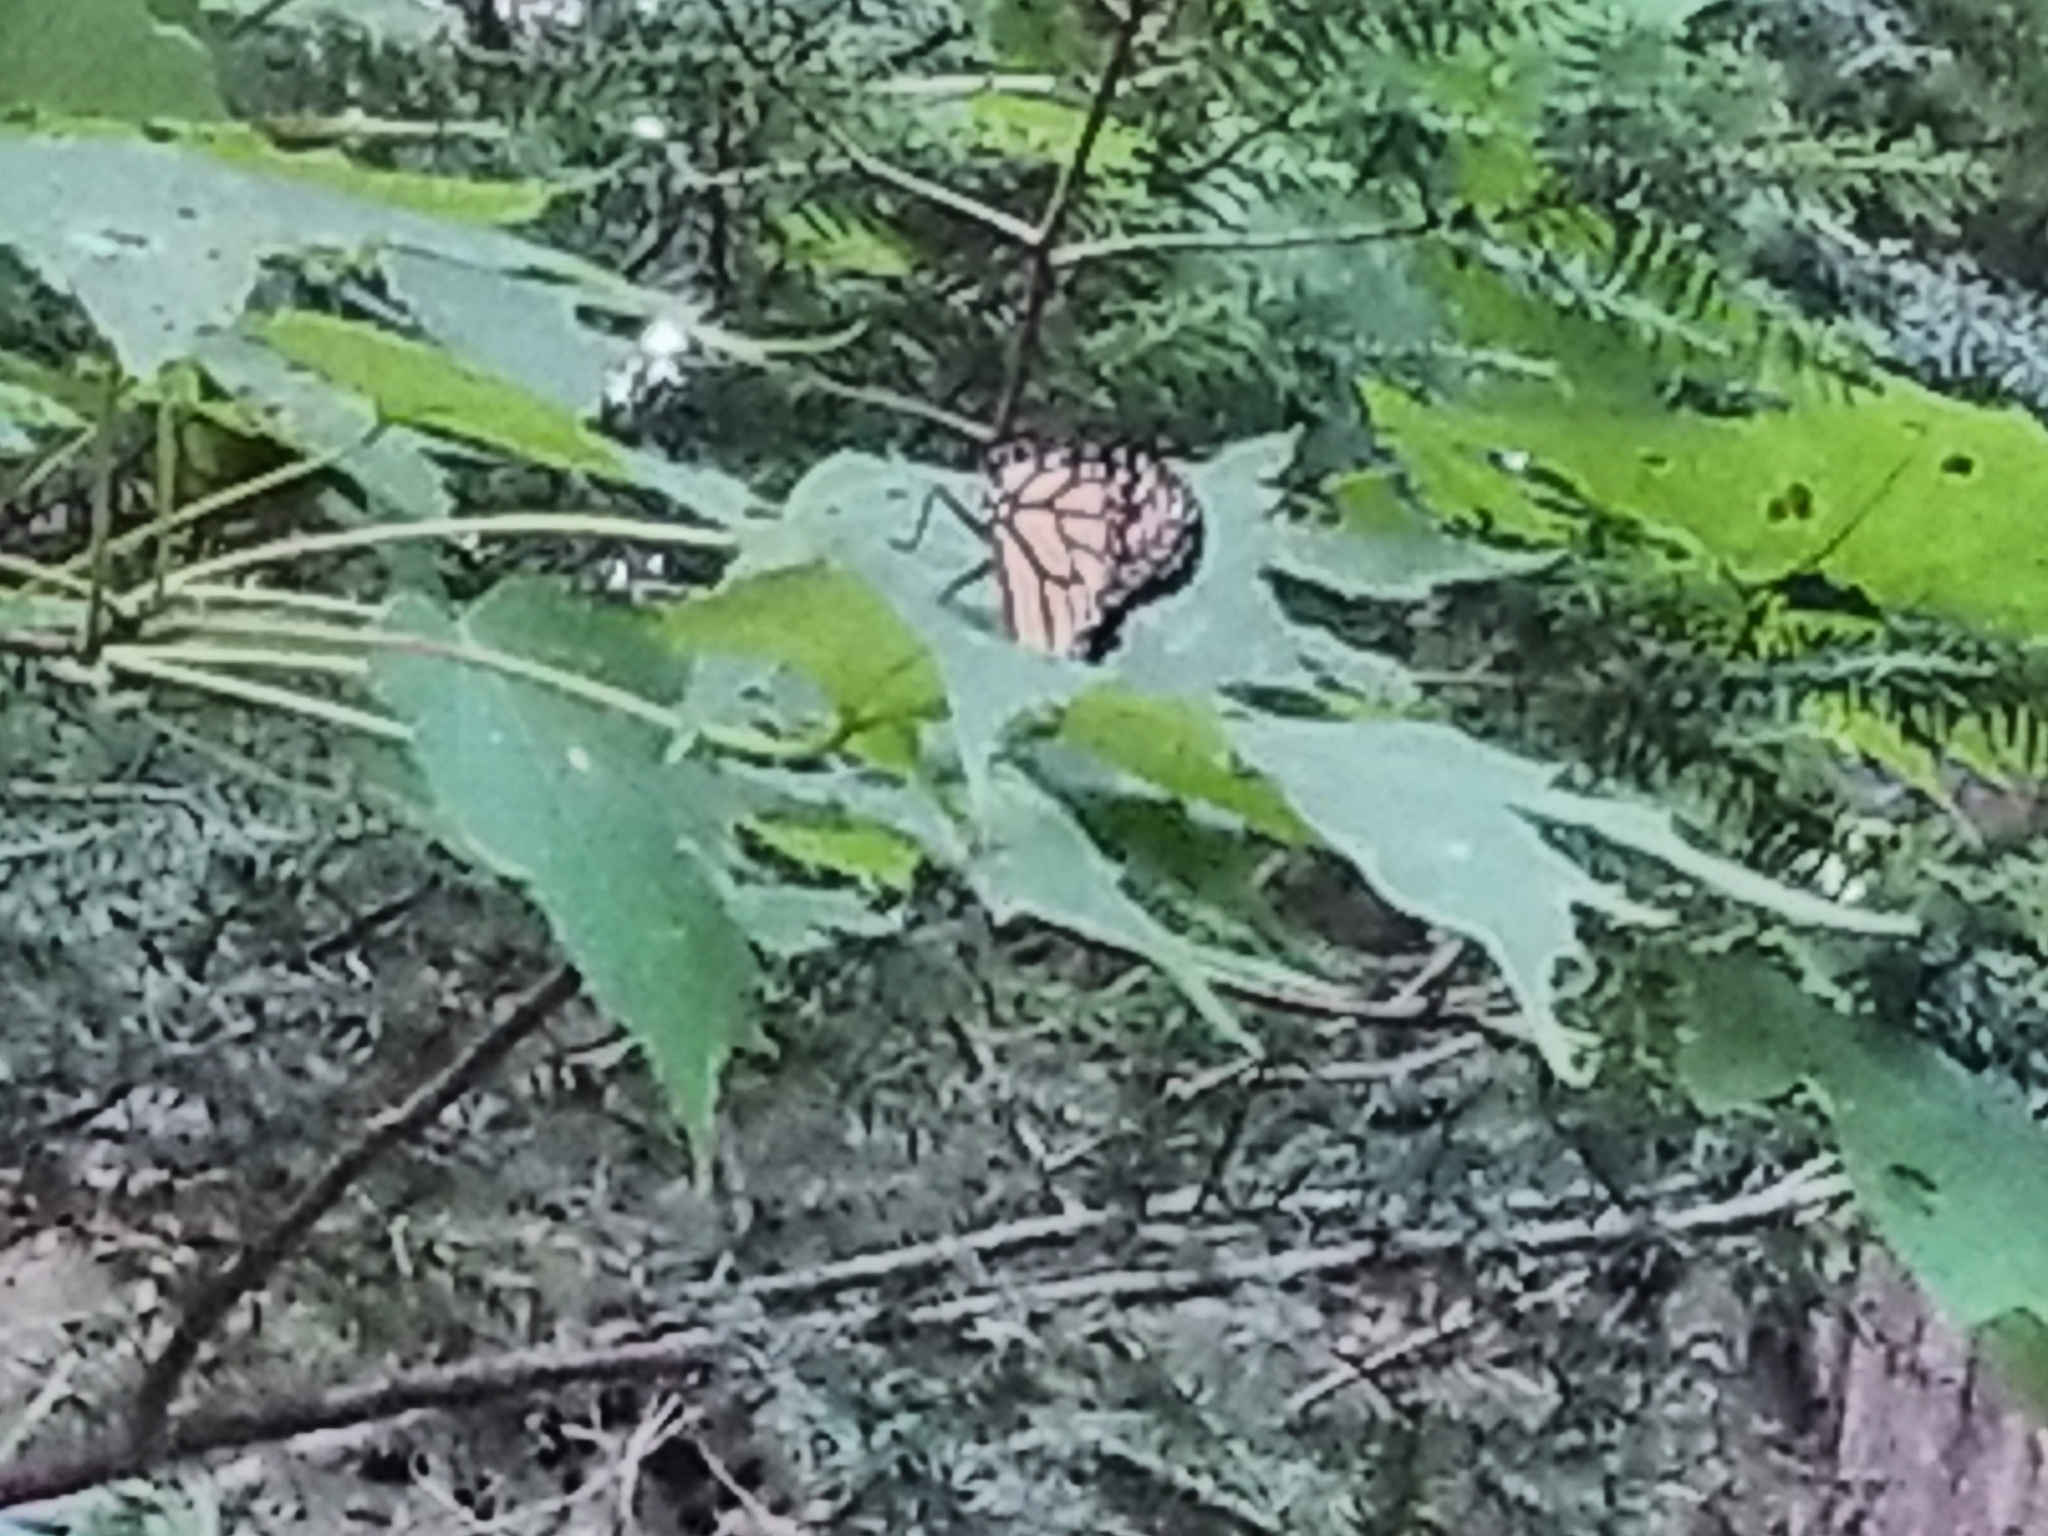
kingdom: Animalia
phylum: Arthropoda
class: Insecta
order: Lepidoptera
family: Nymphalidae
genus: Danaus
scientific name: Danaus plexippus
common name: Monarch
